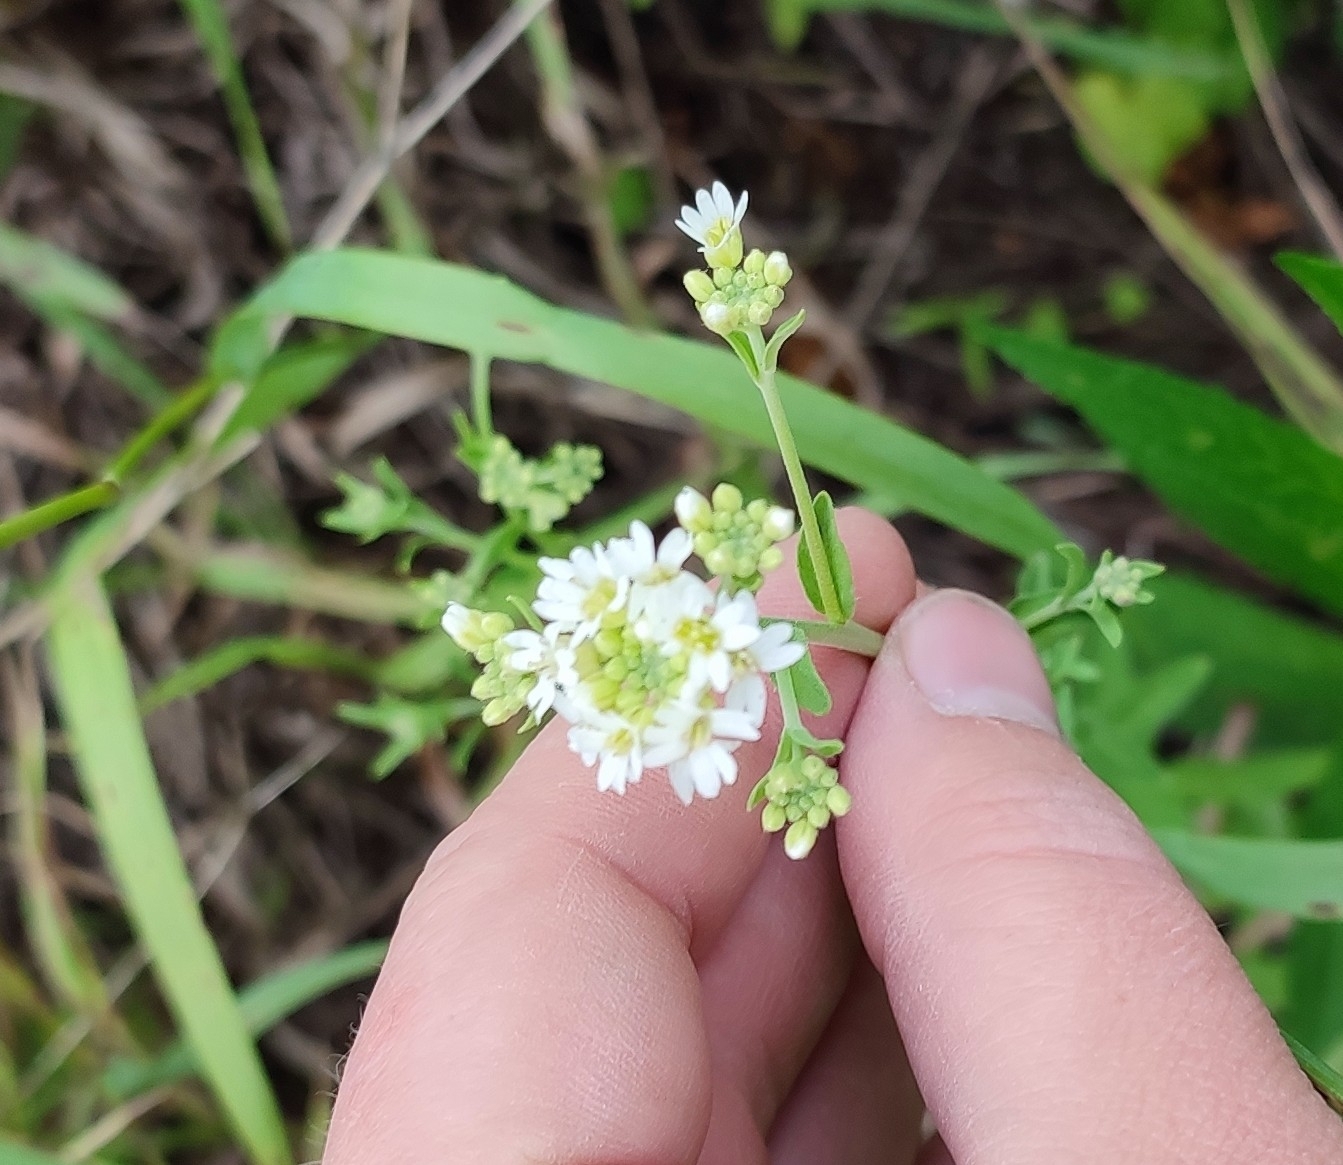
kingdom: Plantae
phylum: Tracheophyta
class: Magnoliopsida
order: Brassicales
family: Brassicaceae
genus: Berteroa
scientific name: Berteroa incana
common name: Hoary alison
